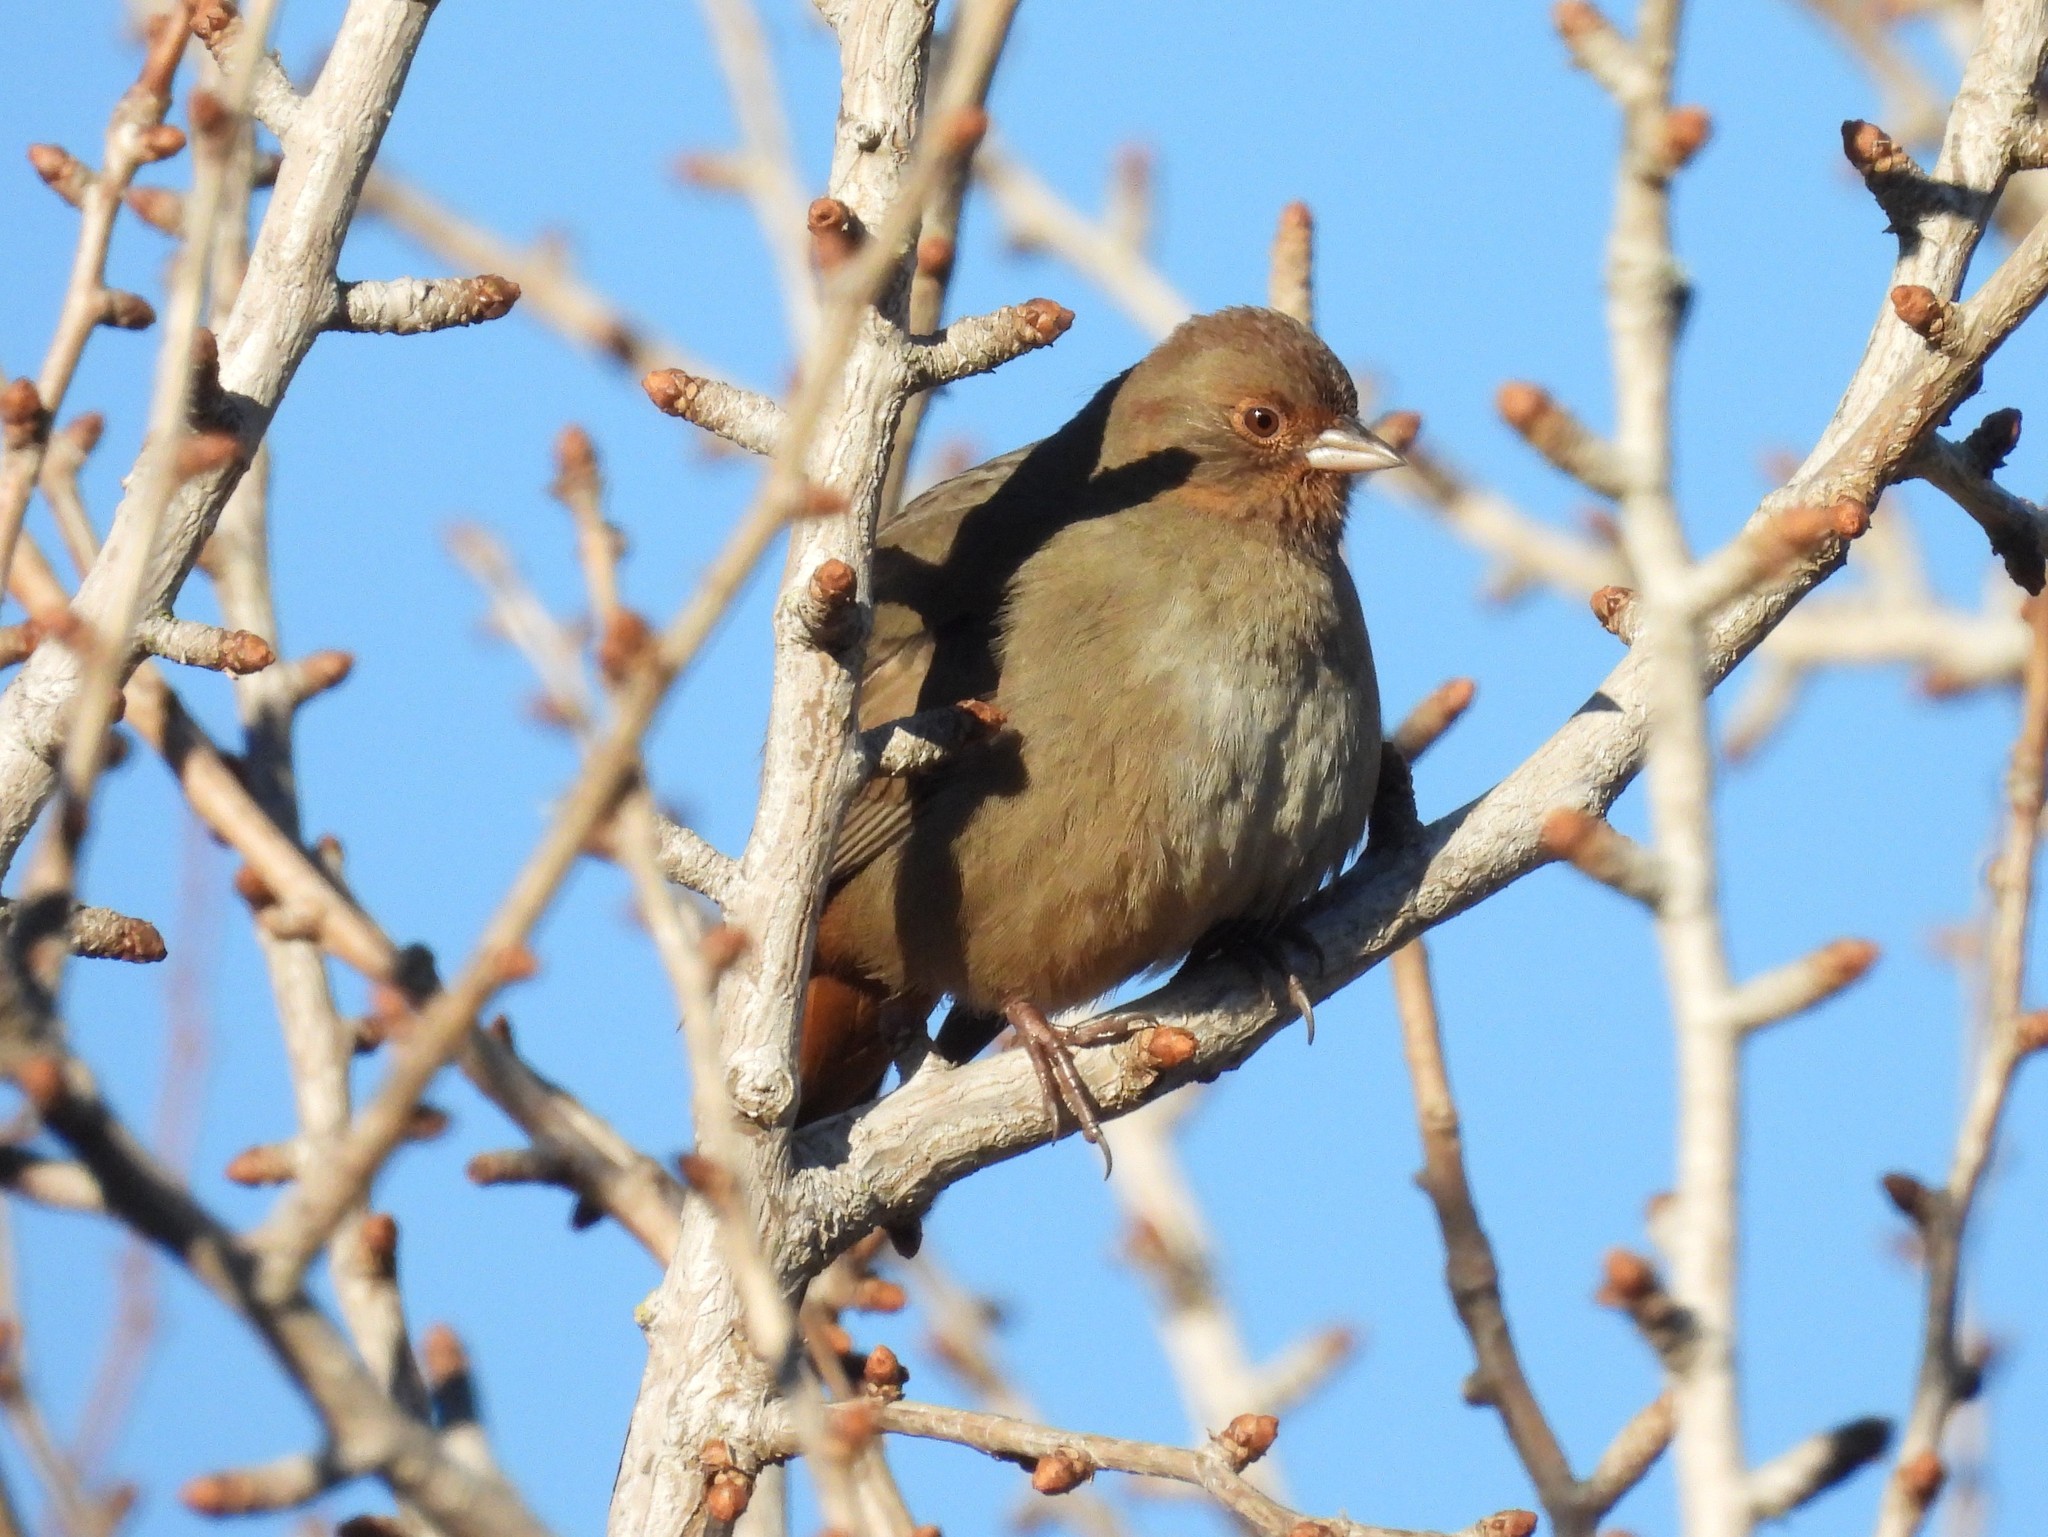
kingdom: Animalia
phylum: Chordata
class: Aves
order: Passeriformes
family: Passerellidae
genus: Melozone
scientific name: Melozone crissalis
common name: California towhee
